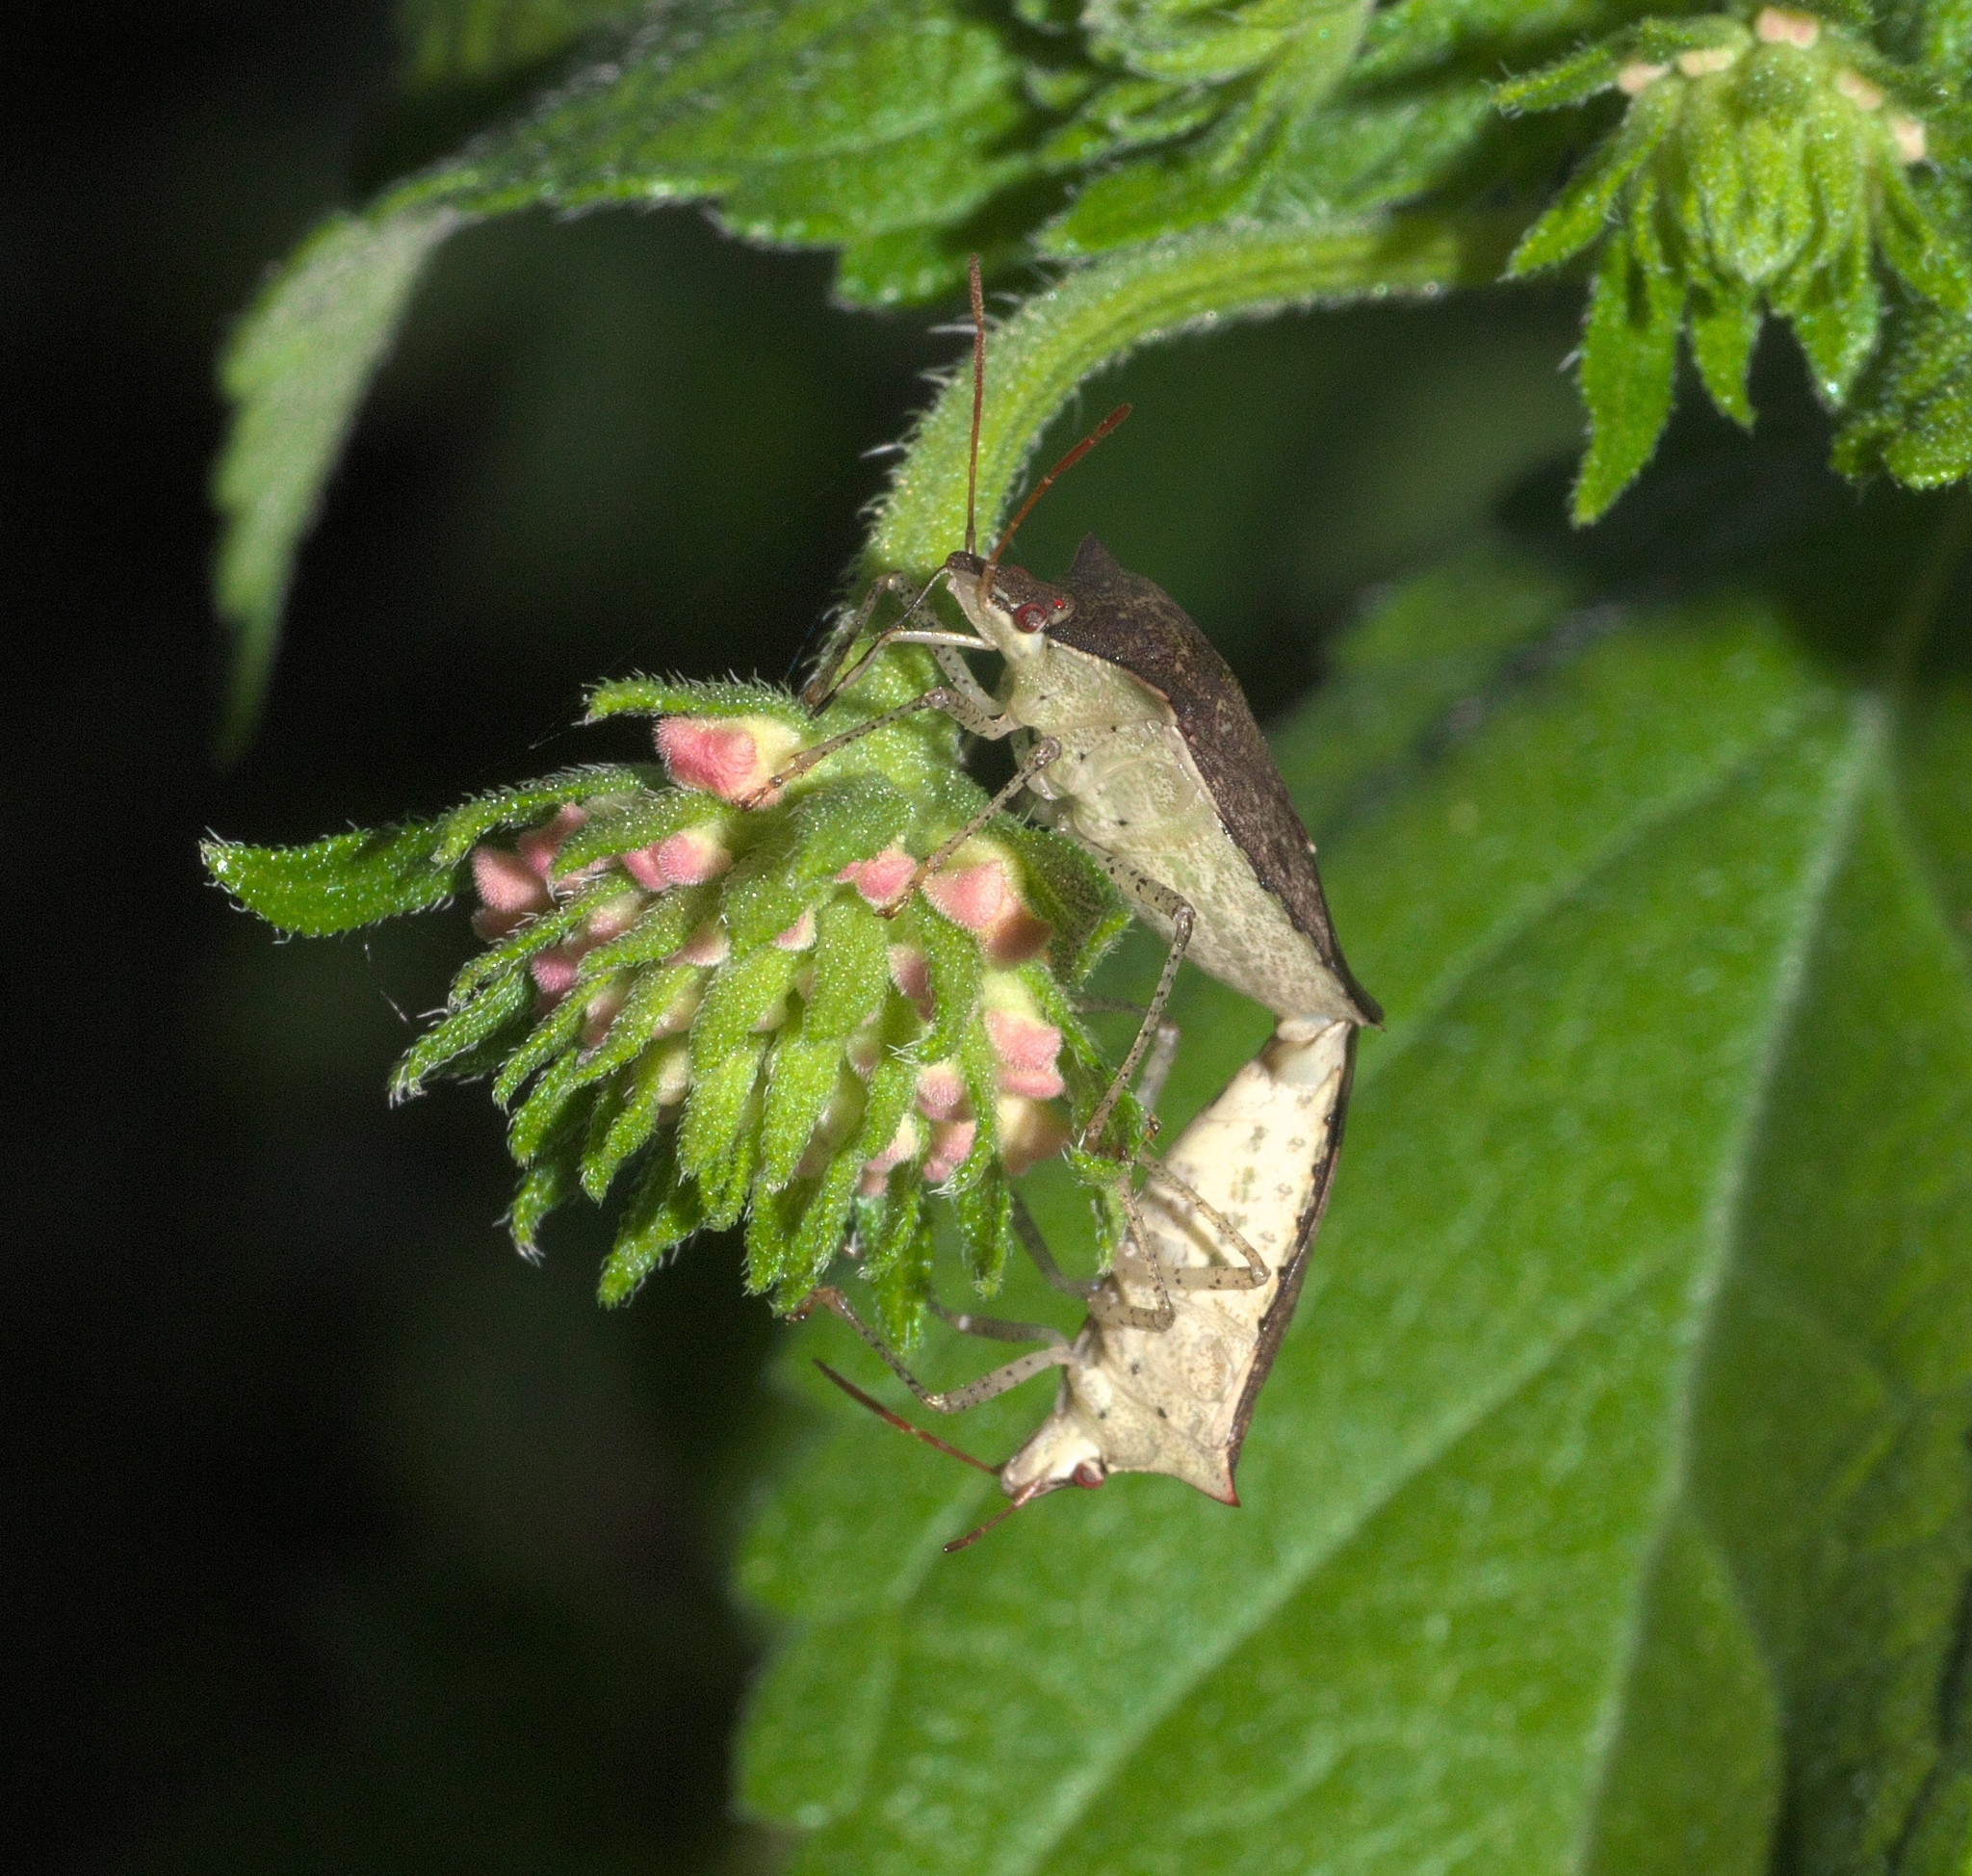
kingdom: Animalia
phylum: Arthropoda
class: Insecta
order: Hemiptera
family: Pentatomidae
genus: Euschistus
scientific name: Euschistus tristigmus
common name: Dusky stink bug
